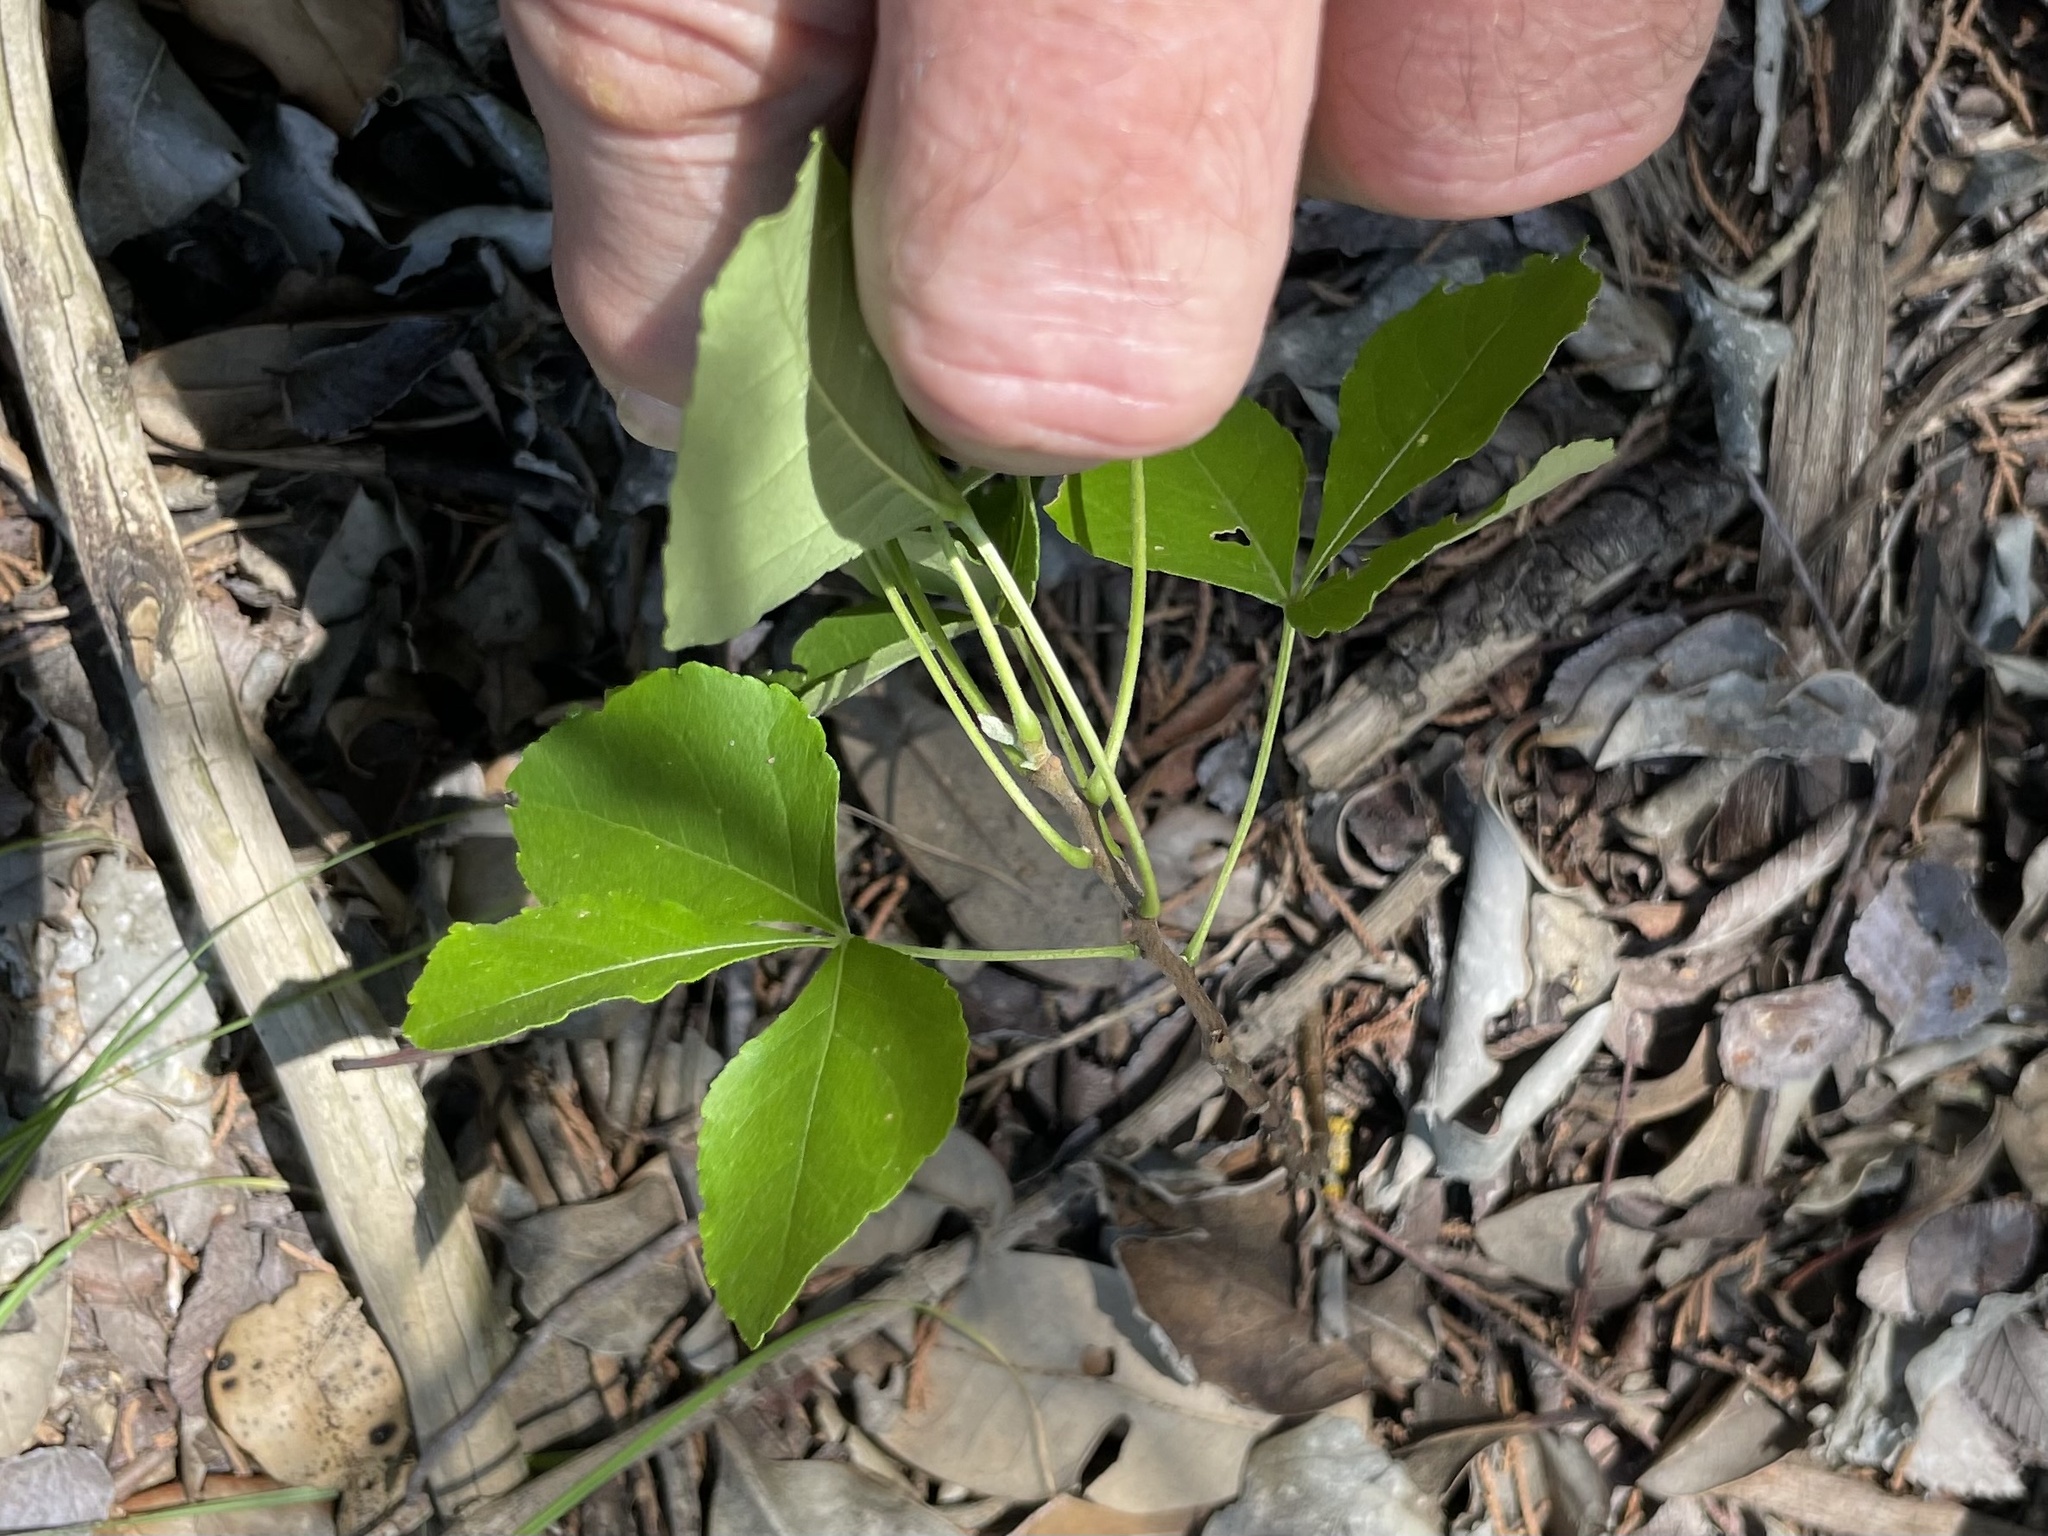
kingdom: Plantae
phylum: Tracheophyta
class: Magnoliopsida
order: Sapindales
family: Rutaceae
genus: Ptelea
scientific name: Ptelea trifoliata
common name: Common hop-tree
